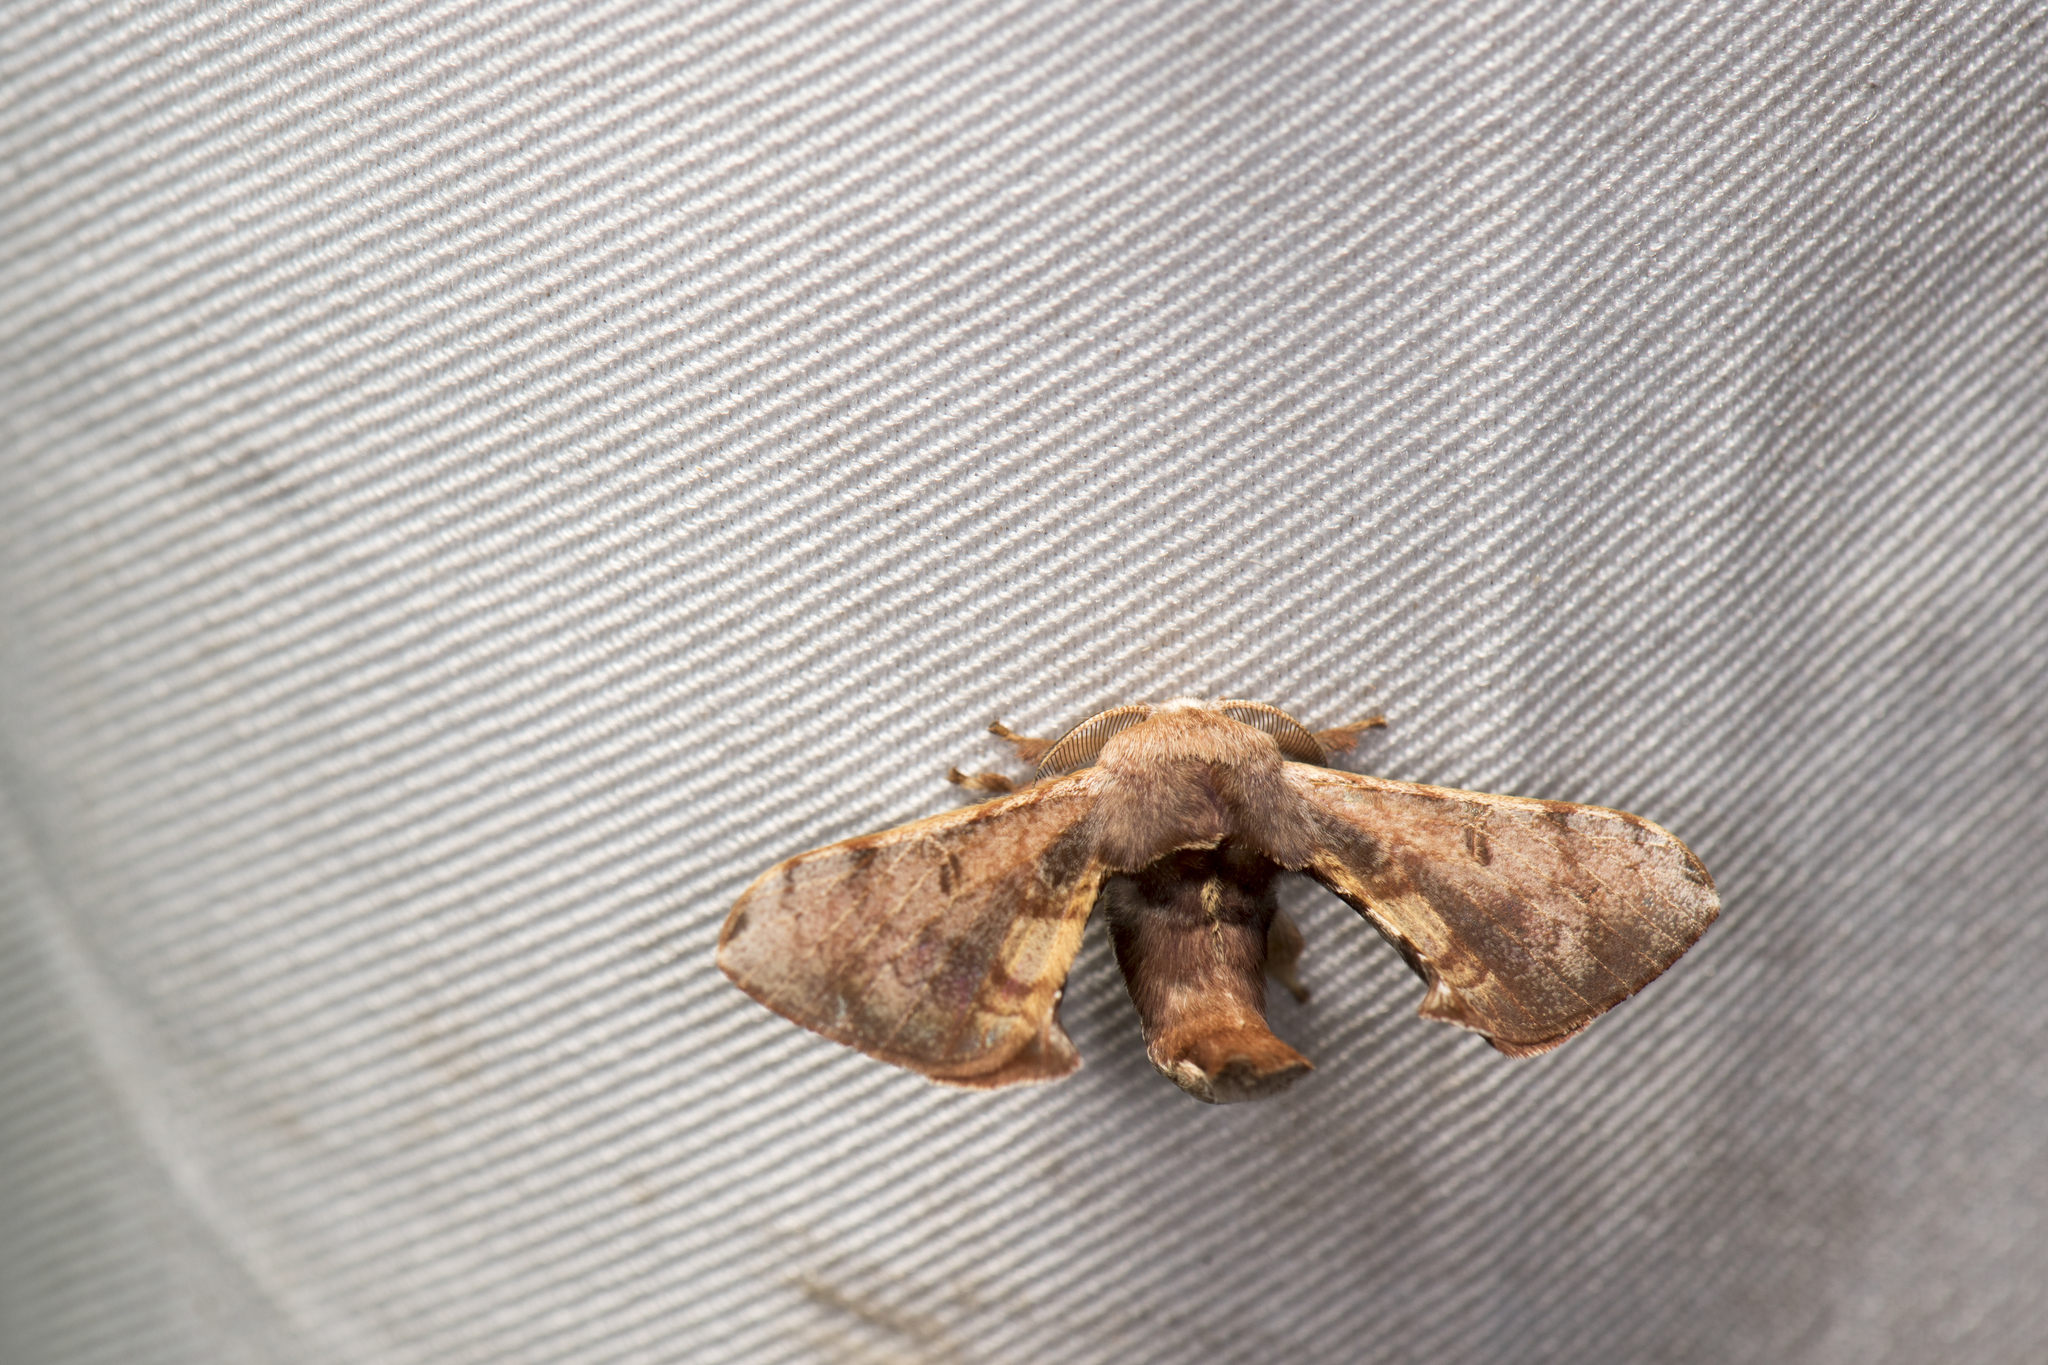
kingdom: Animalia
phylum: Arthropoda
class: Insecta
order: Lepidoptera
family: Bombycidae
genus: Triuncina
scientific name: Triuncina brunnea
